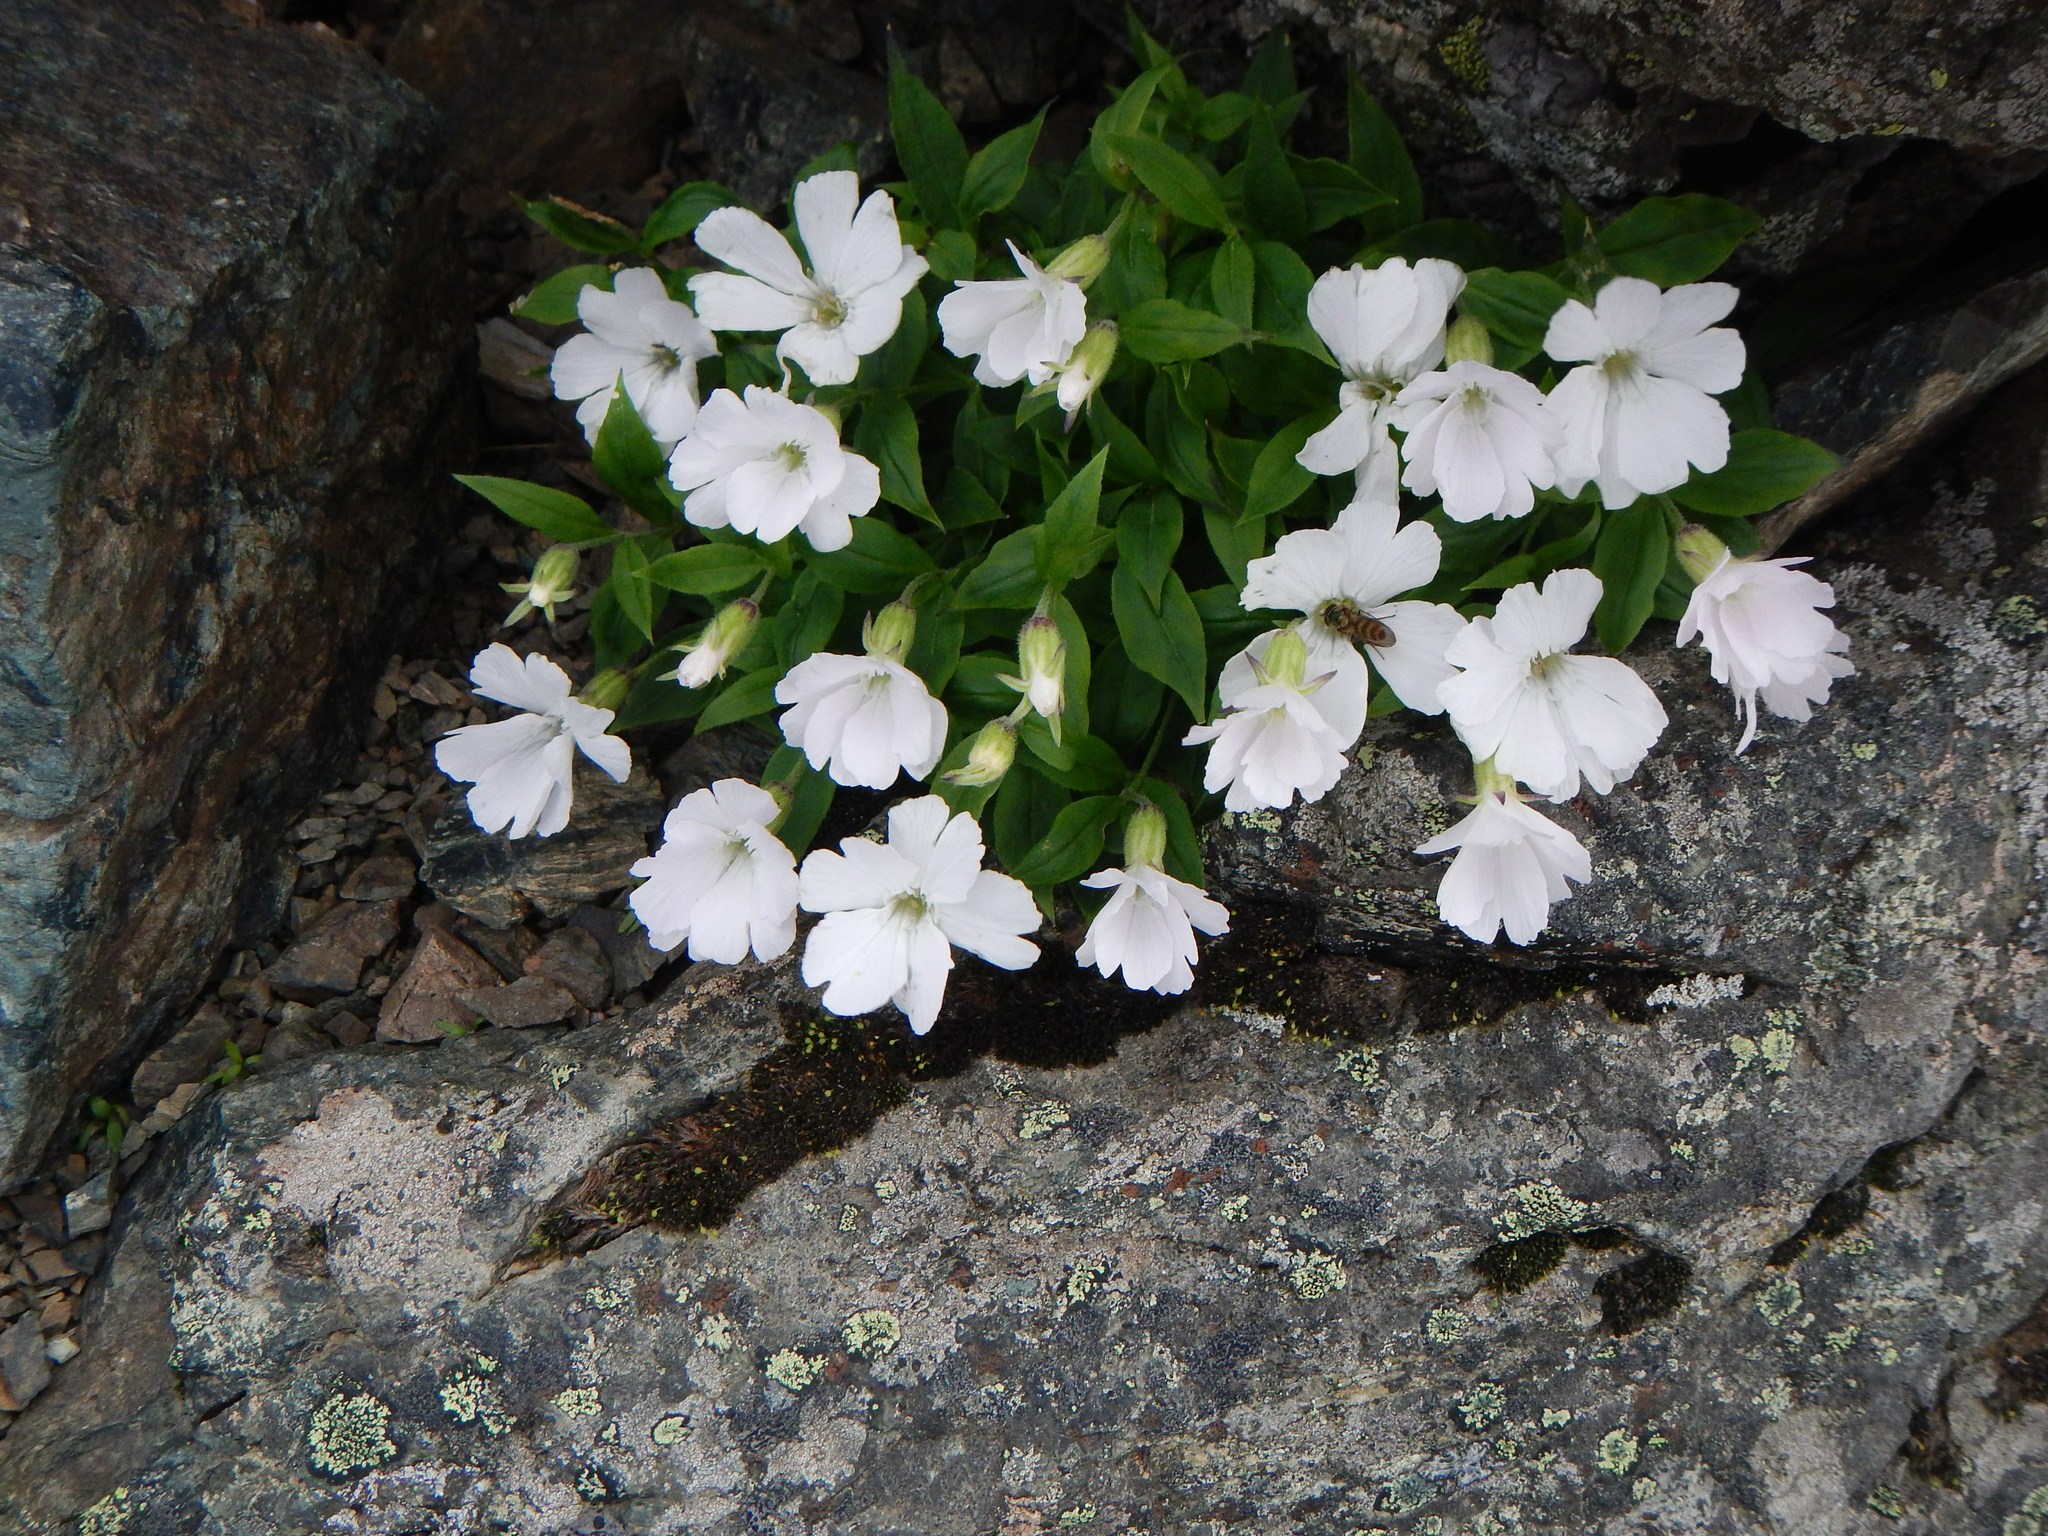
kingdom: Plantae
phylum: Tracheophyta
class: Magnoliopsida
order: Caryophyllales
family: Caryophyllaceae
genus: Silene
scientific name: Silene akaisialpina
